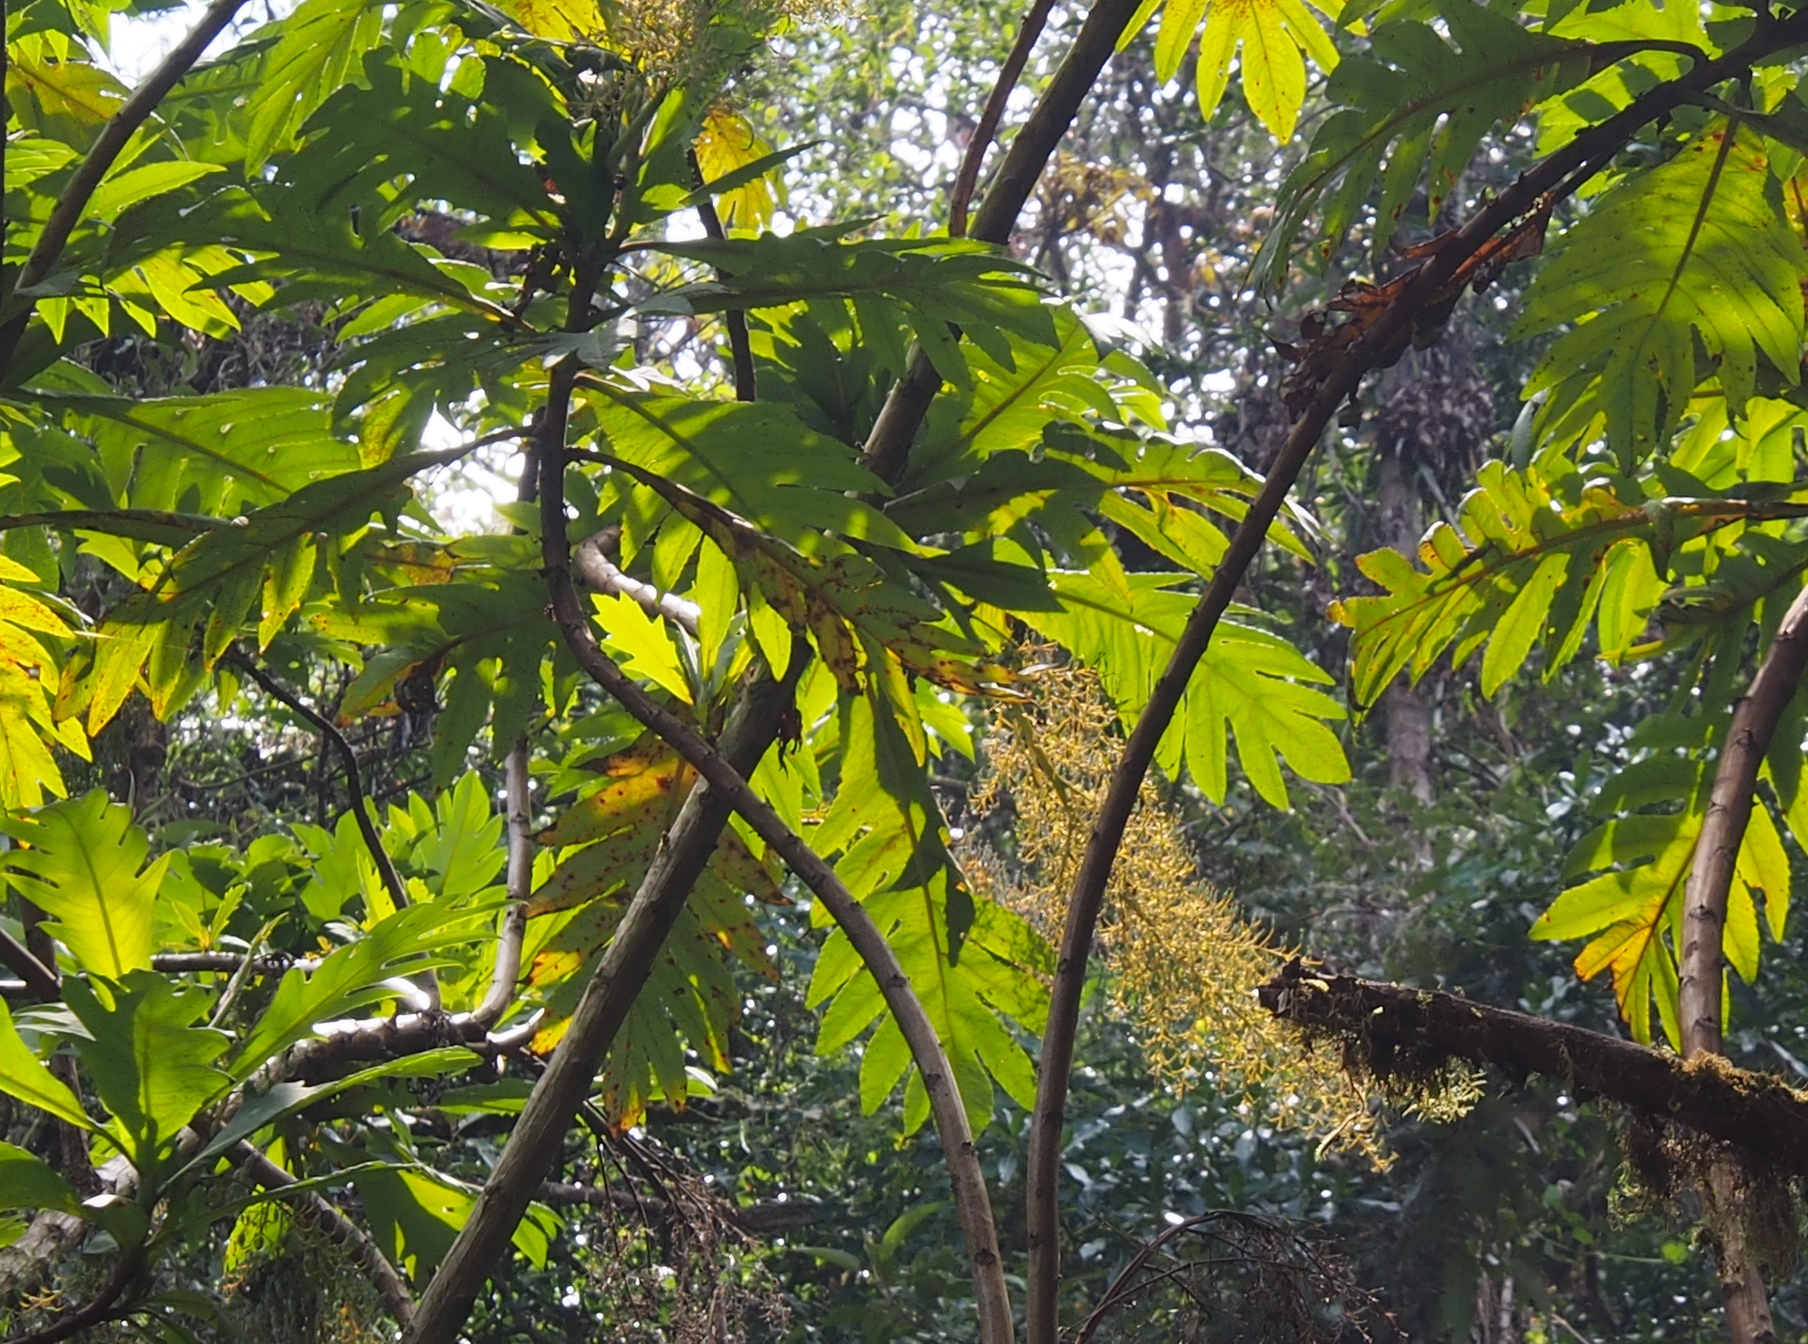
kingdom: Plantae
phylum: Tracheophyta
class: Magnoliopsida
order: Ranunculales
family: Papaveraceae
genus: Bocconia
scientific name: Bocconia frutescens
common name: Tree poppy
